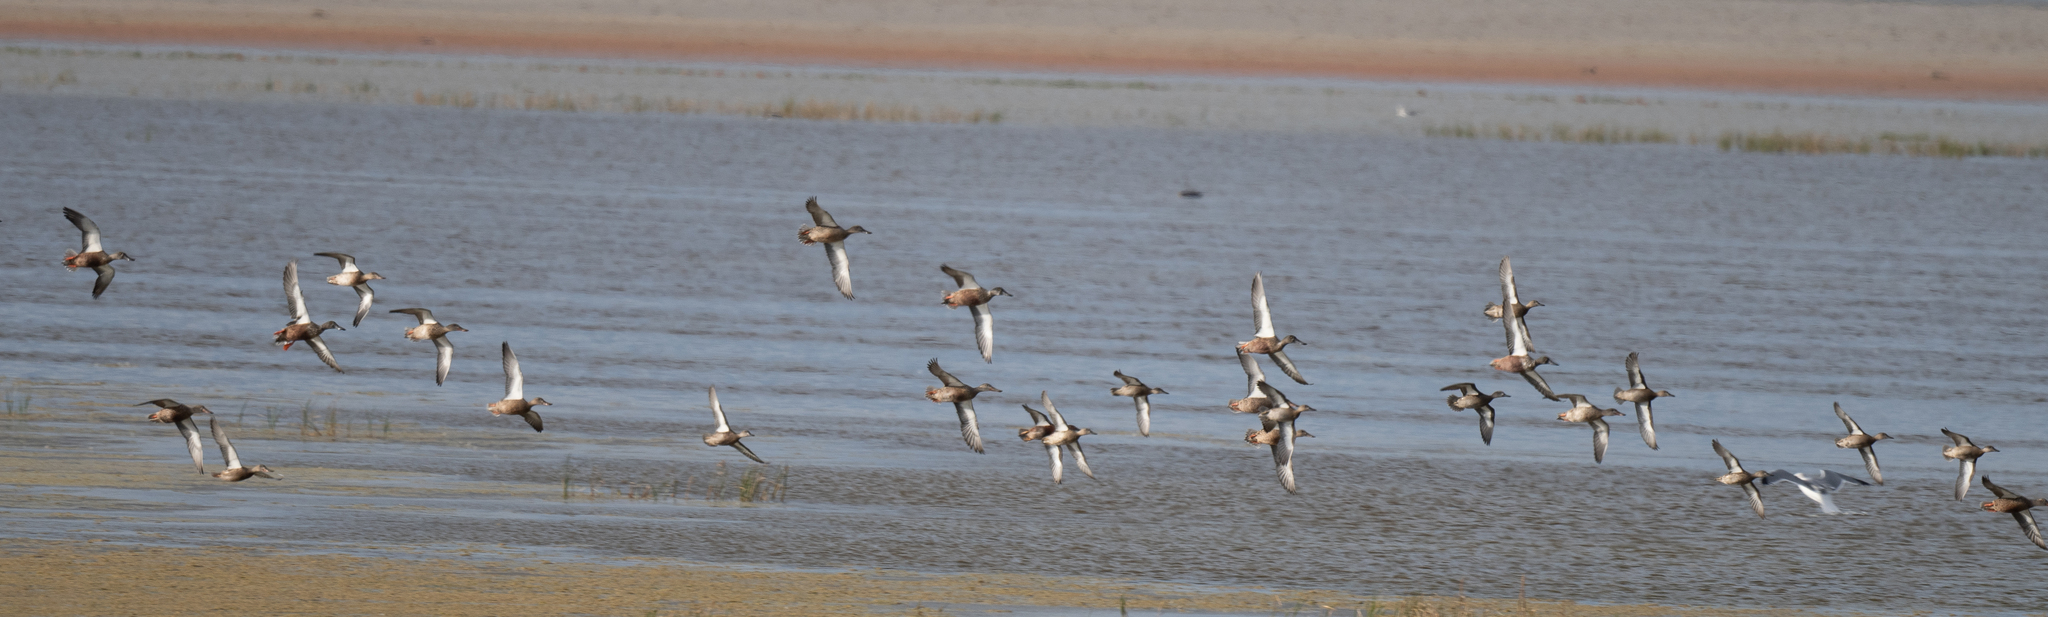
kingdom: Animalia
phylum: Chordata
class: Aves
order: Anseriformes
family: Anatidae
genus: Spatula
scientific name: Spatula clypeata
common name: Northern shoveler
